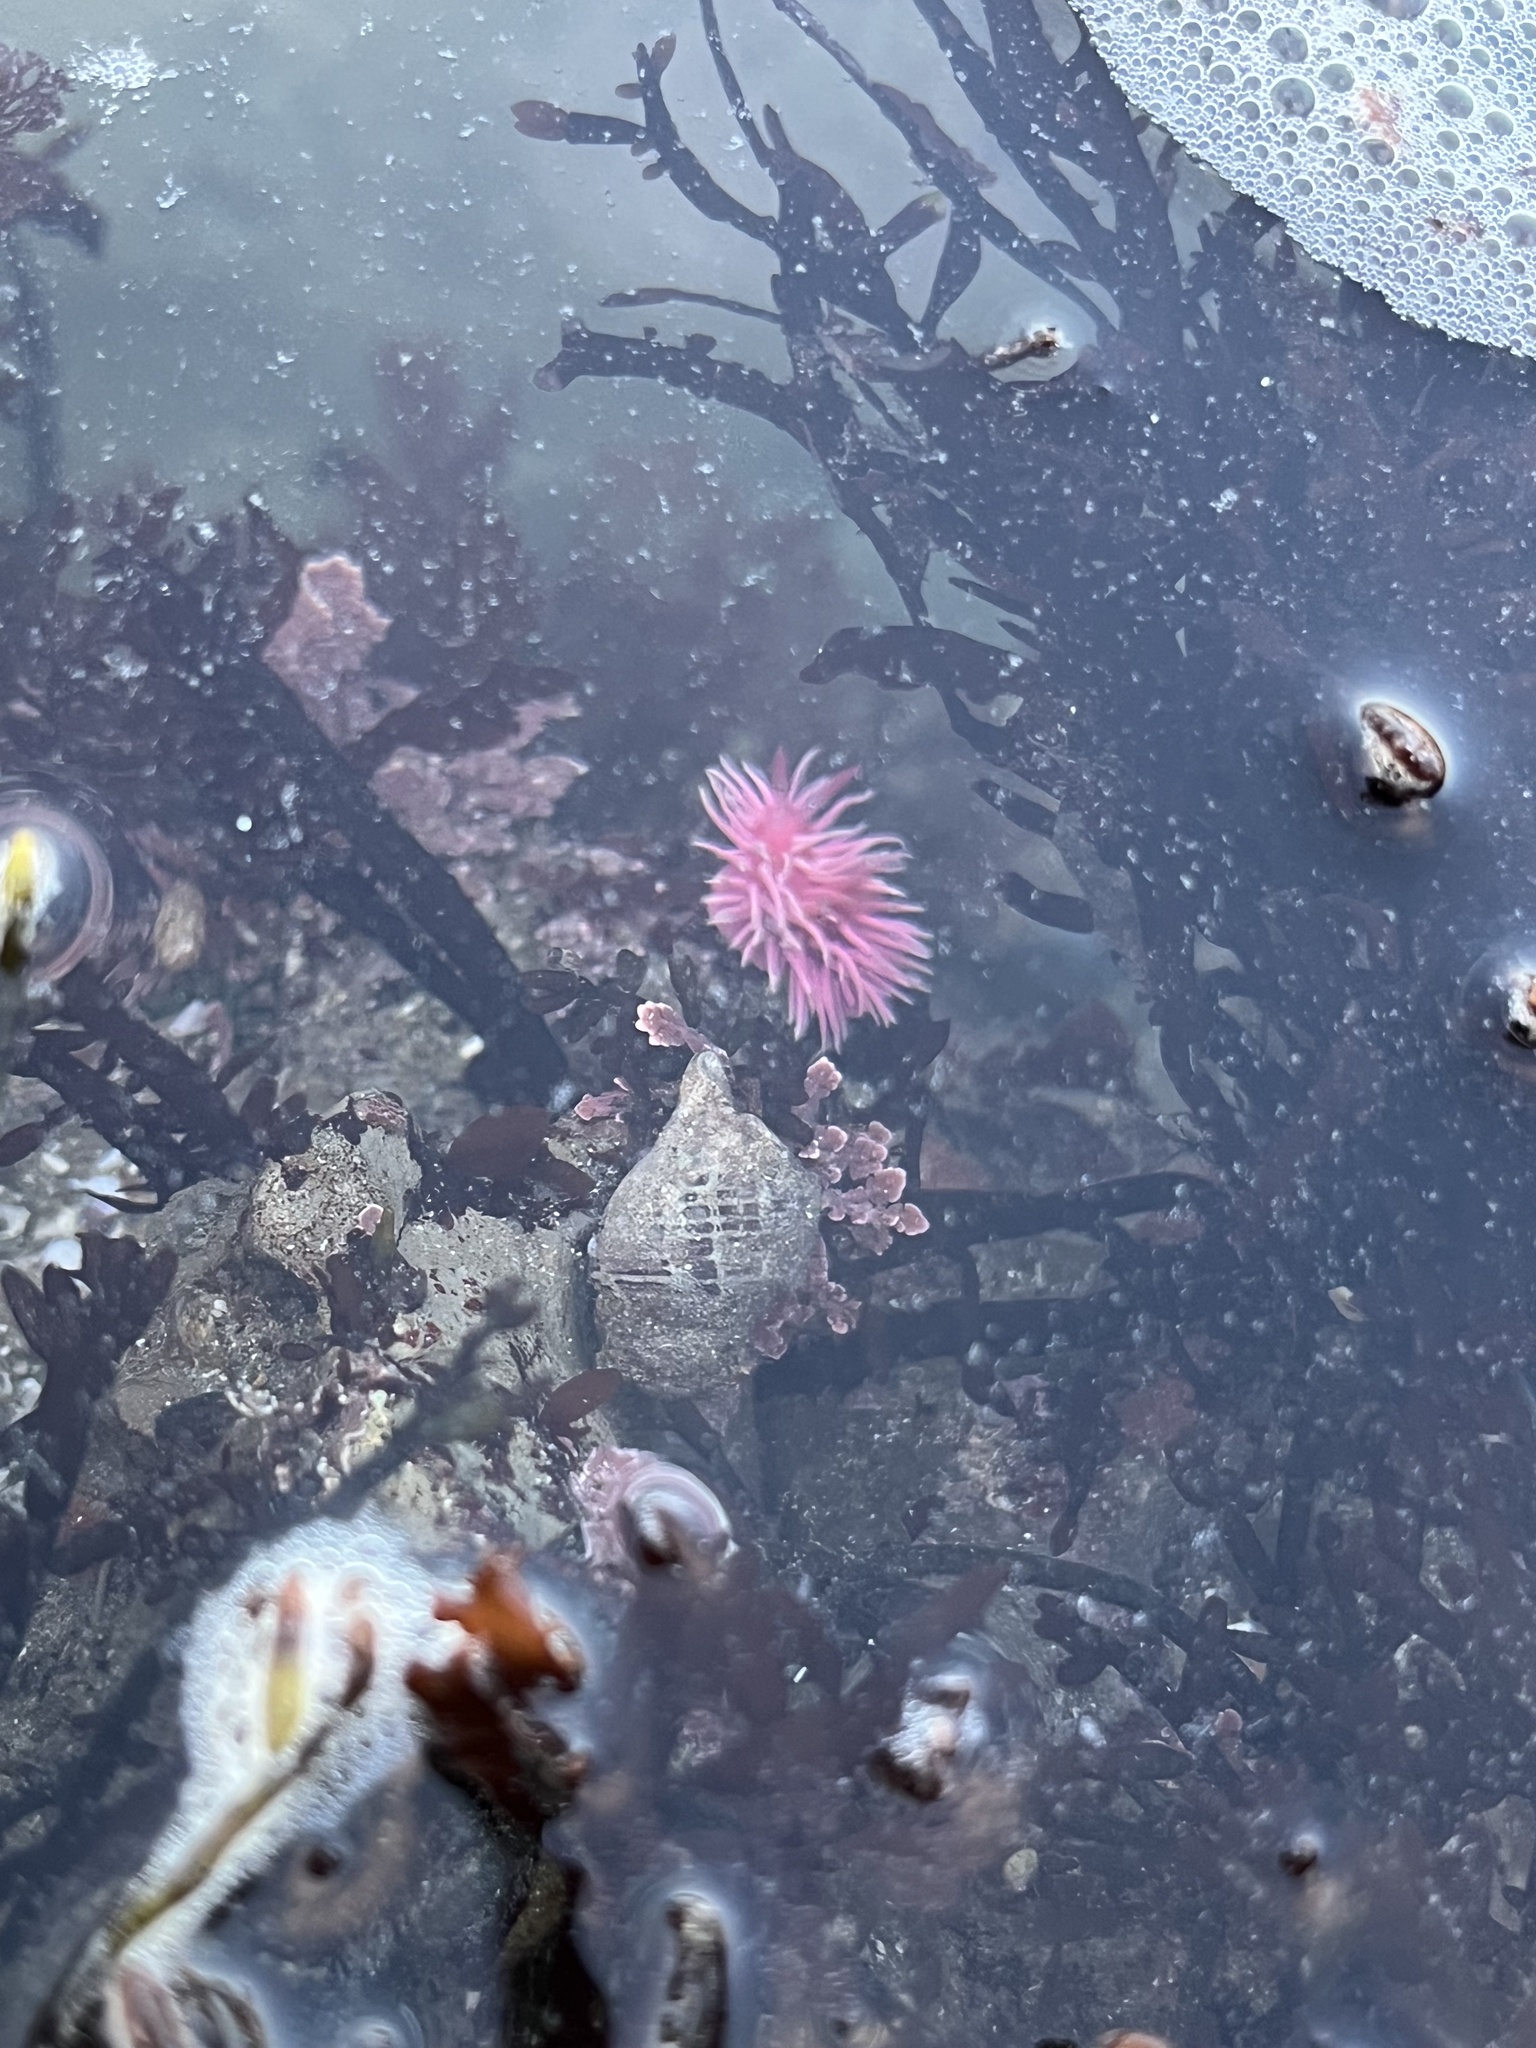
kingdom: Animalia
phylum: Mollusca
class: Gastropoda
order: Nudibranchia
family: Goniodorididae
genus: Okenia
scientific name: Okenia
